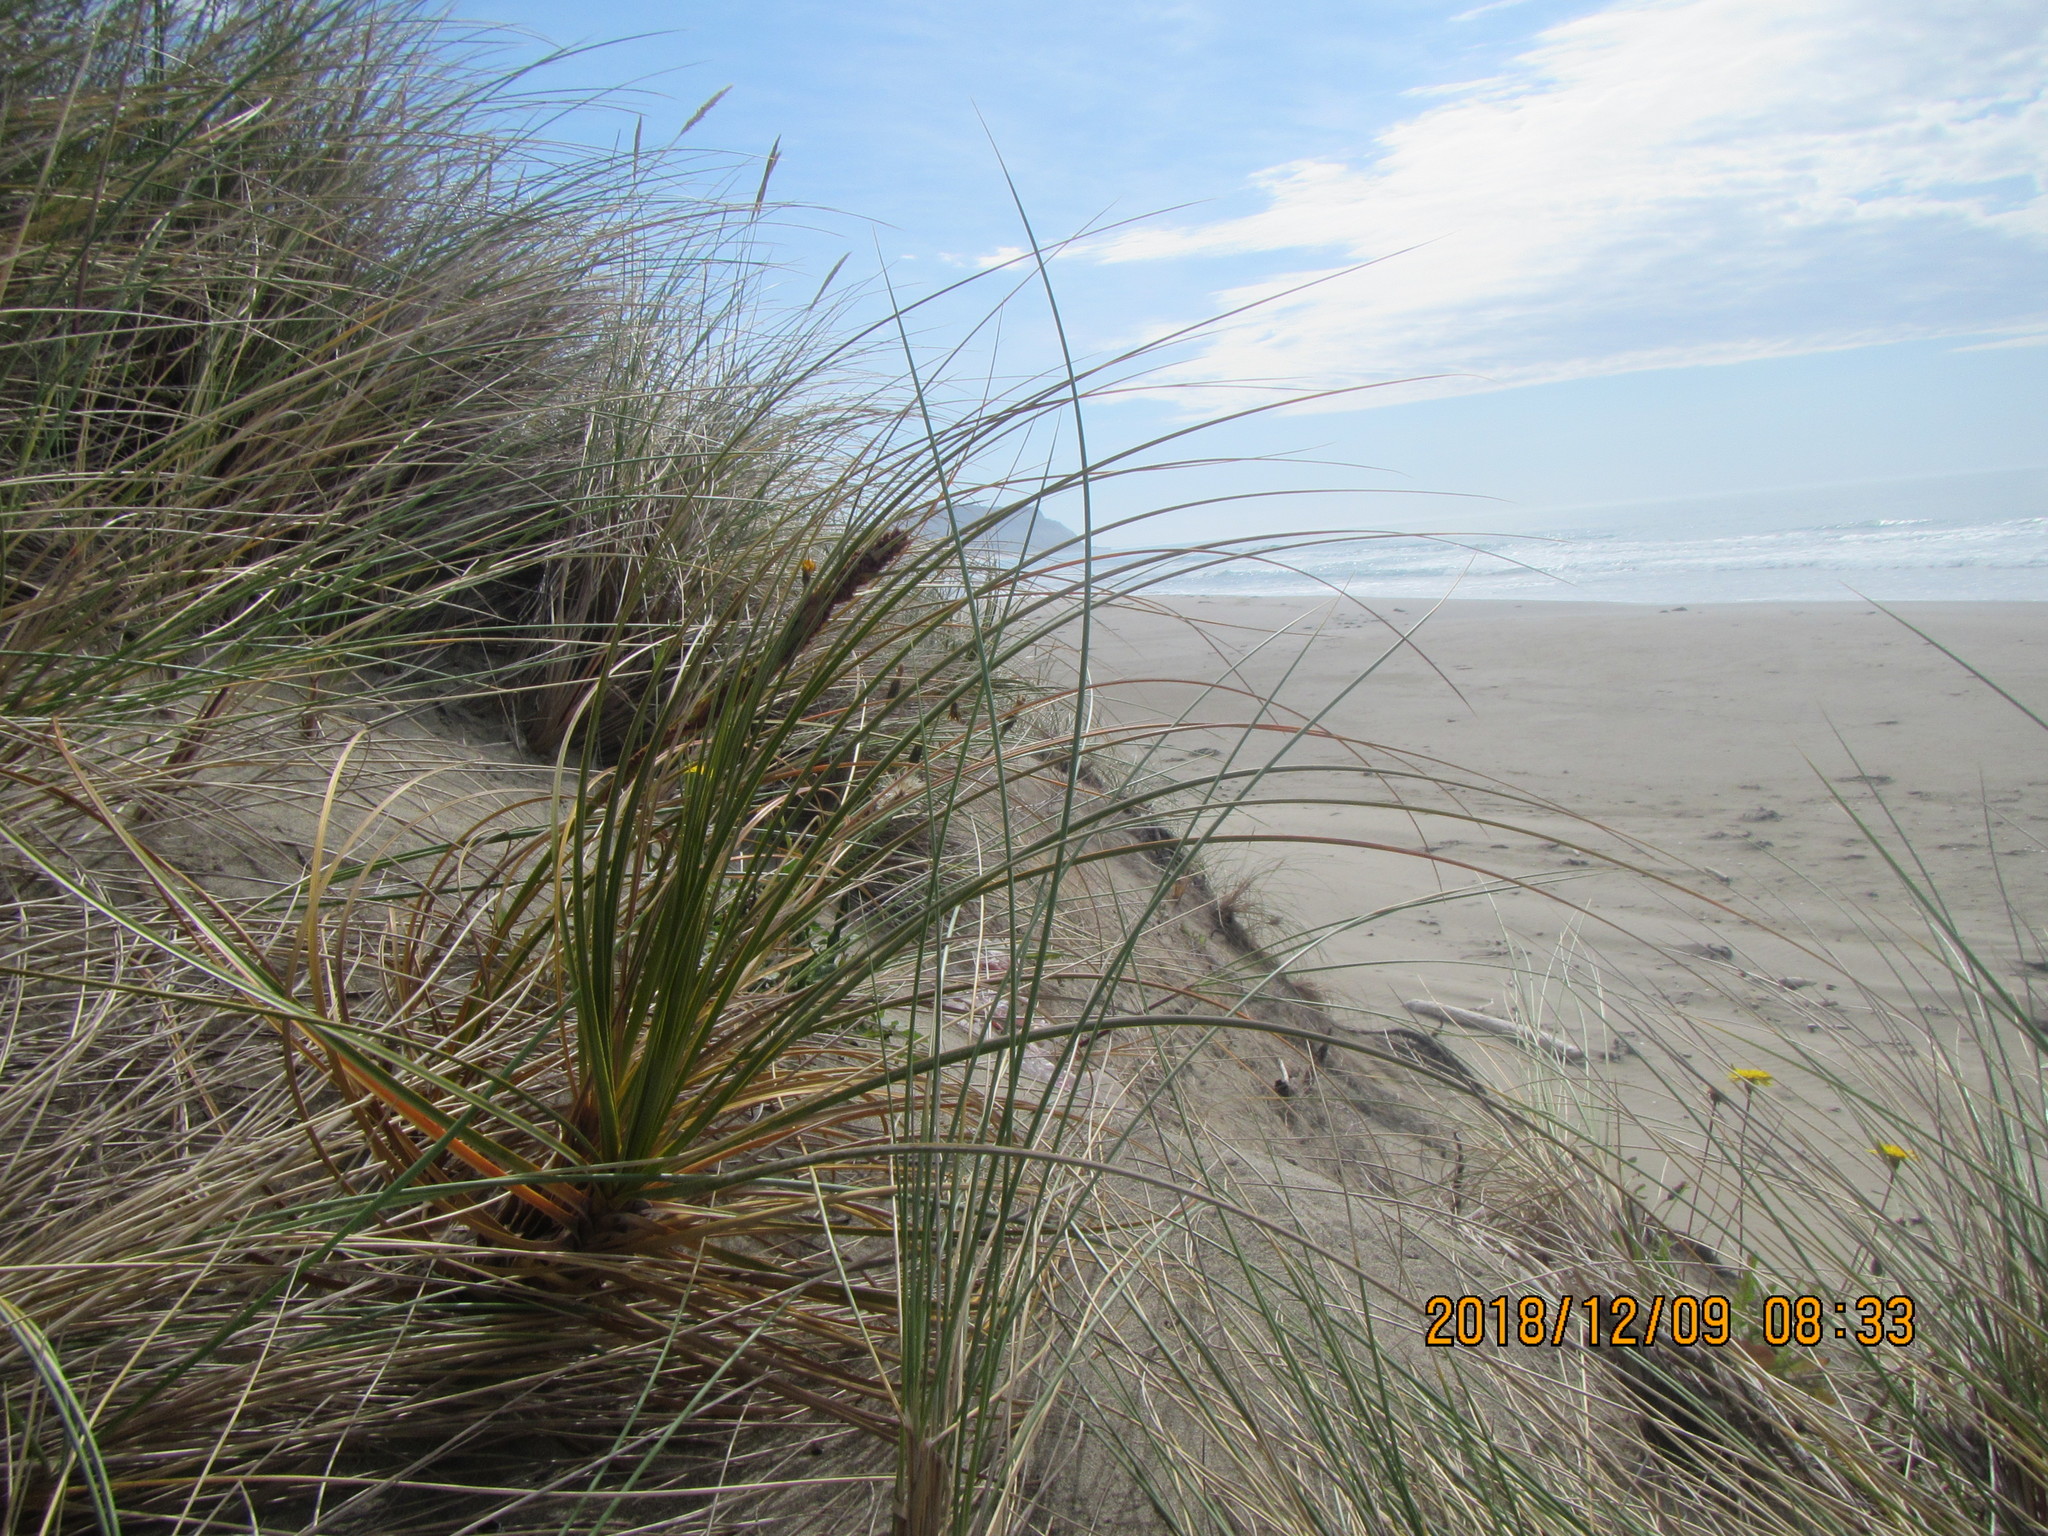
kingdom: Plantae
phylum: Tracheophyta
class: Liliopsida
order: Poales
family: Cyperaceae
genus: Ficinia
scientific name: Ficinia spiralis
